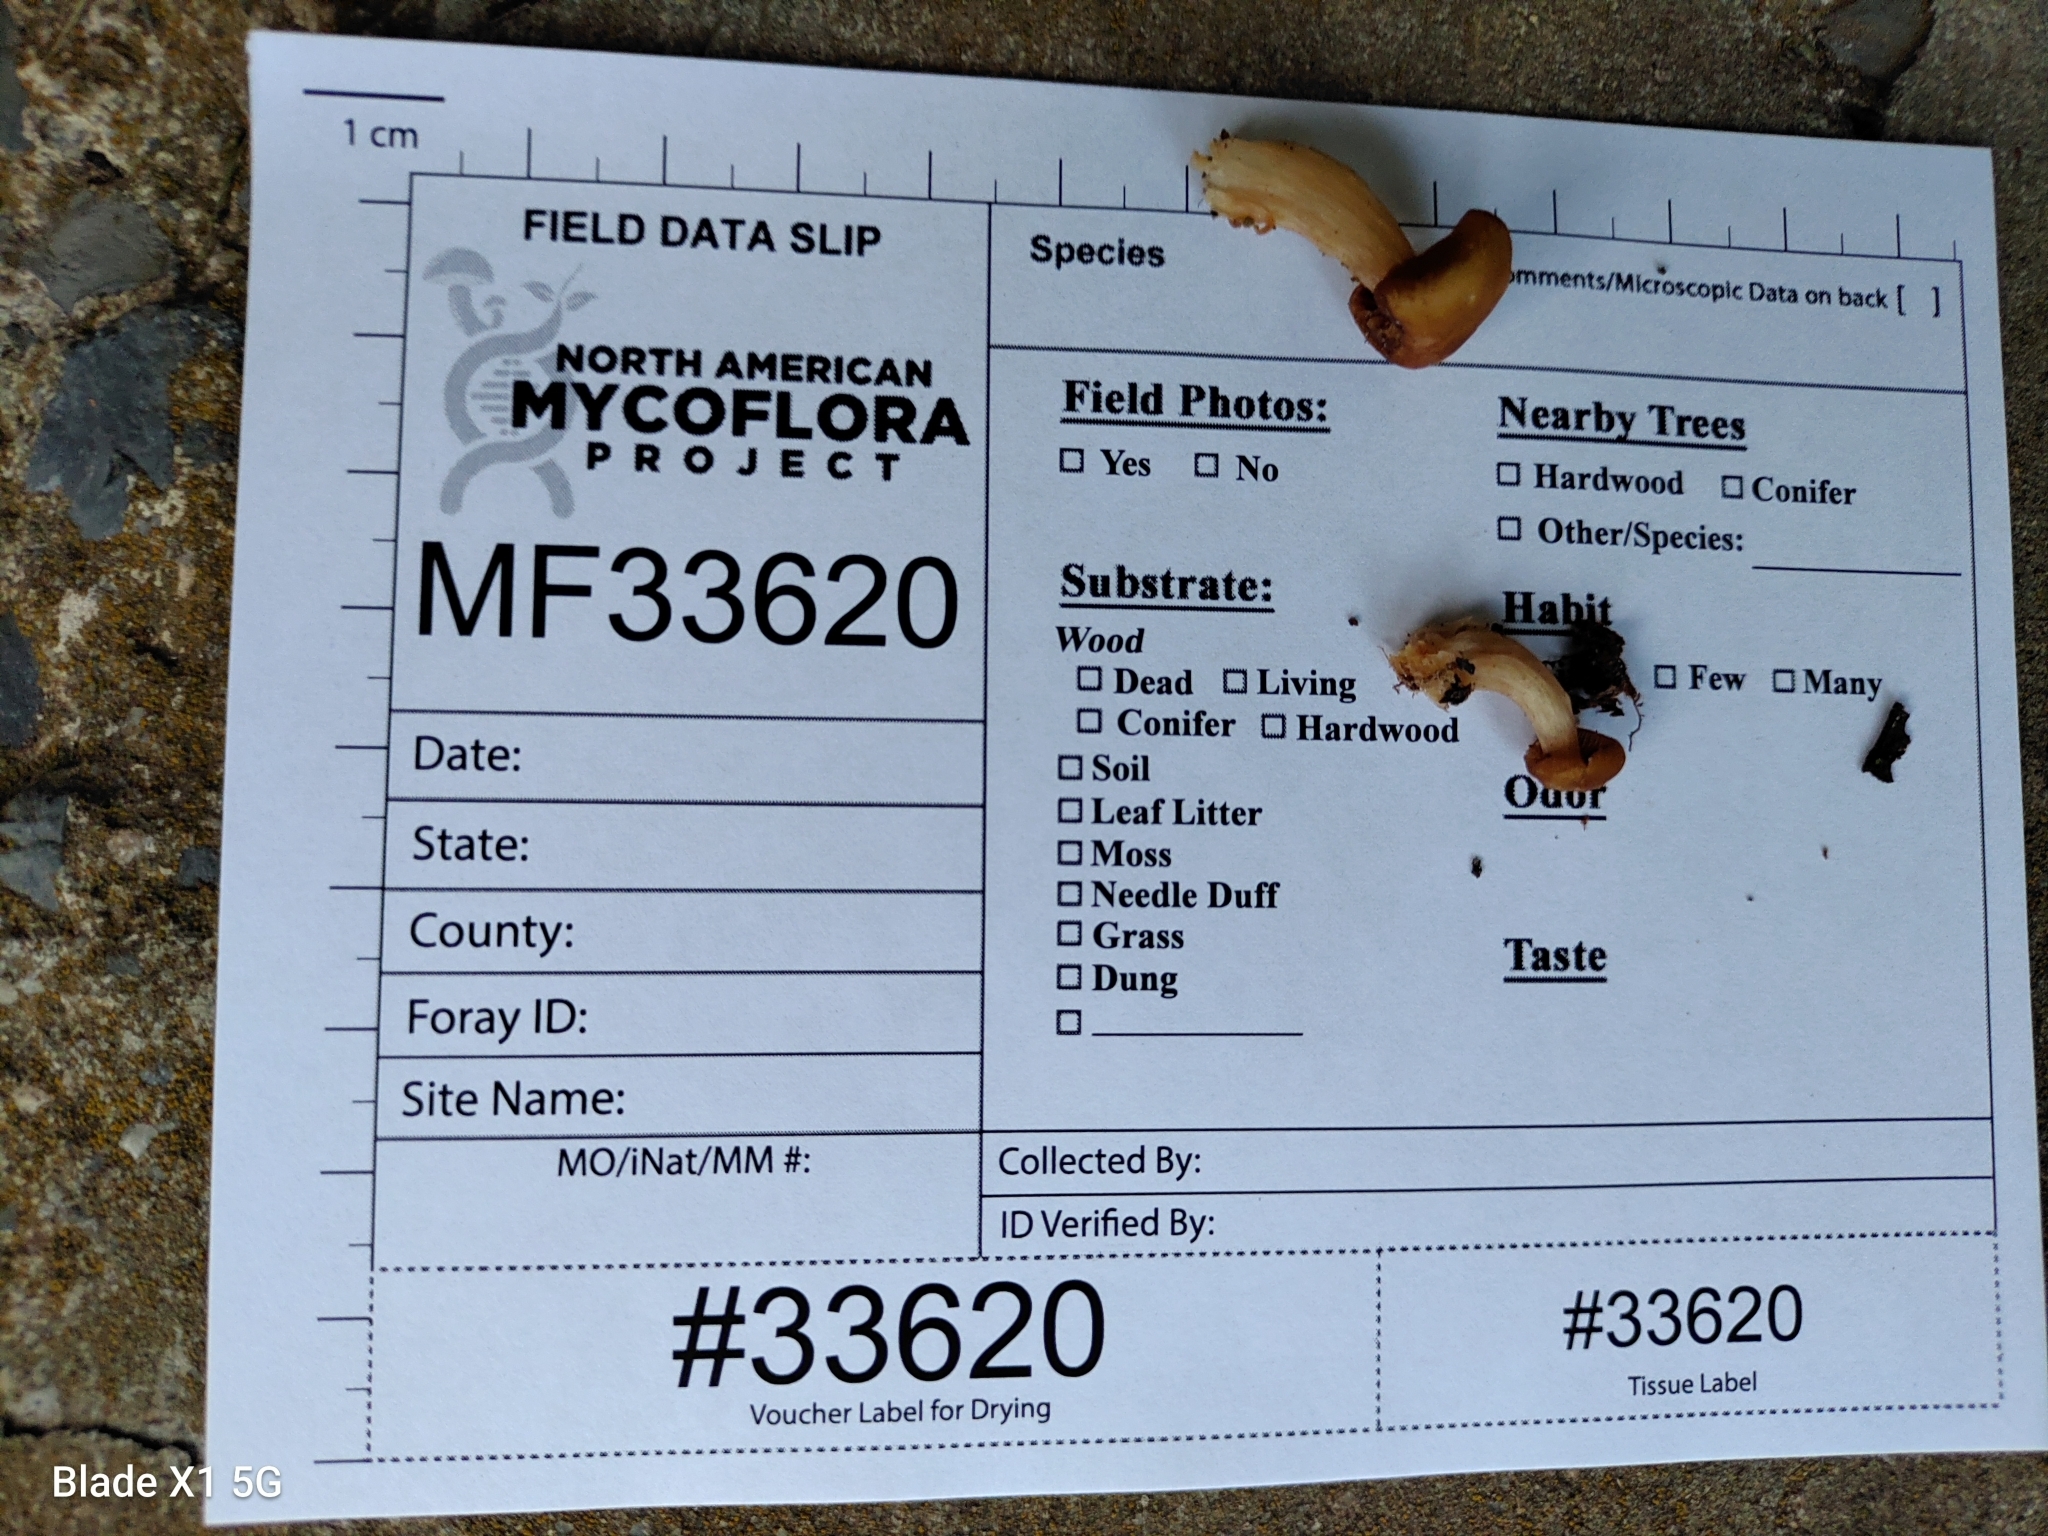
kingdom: Fungi
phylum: Basidiomycota
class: Agaricomycetes
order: Agaricales
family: Mycenaceae
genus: Mycena
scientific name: Mycena denticulata
